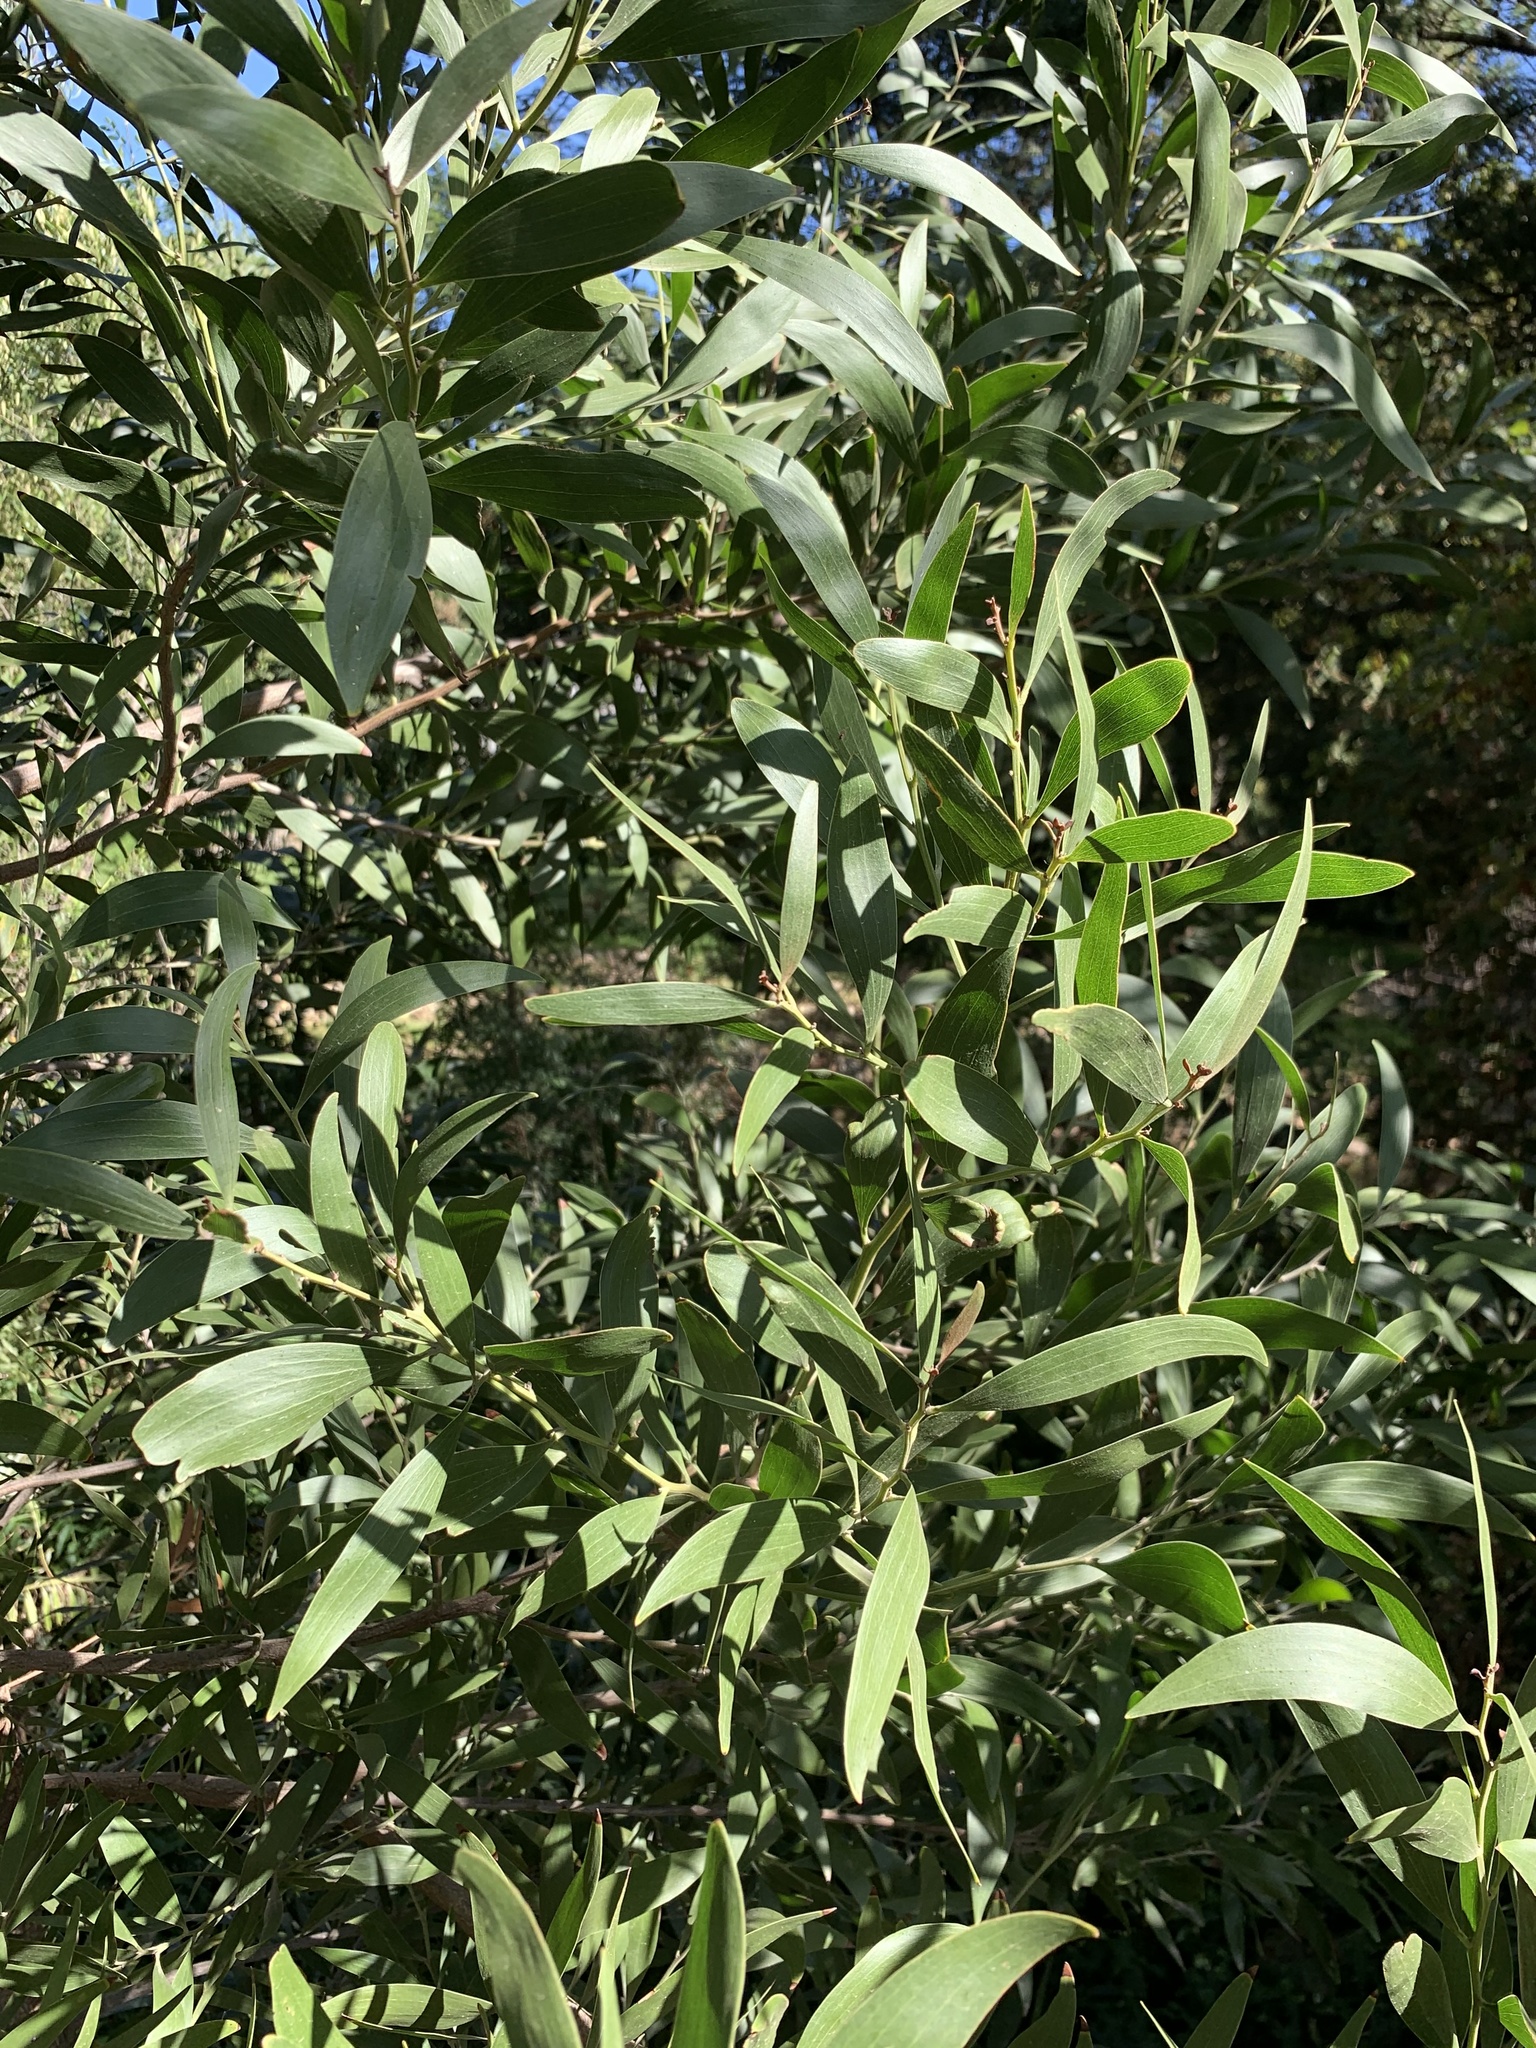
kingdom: Plantae
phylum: Tracheophyta
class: Magnoliopsida
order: Fabales
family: Fabaceae
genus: Acacia
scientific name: Acacia melanoxylon
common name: Blackwood
